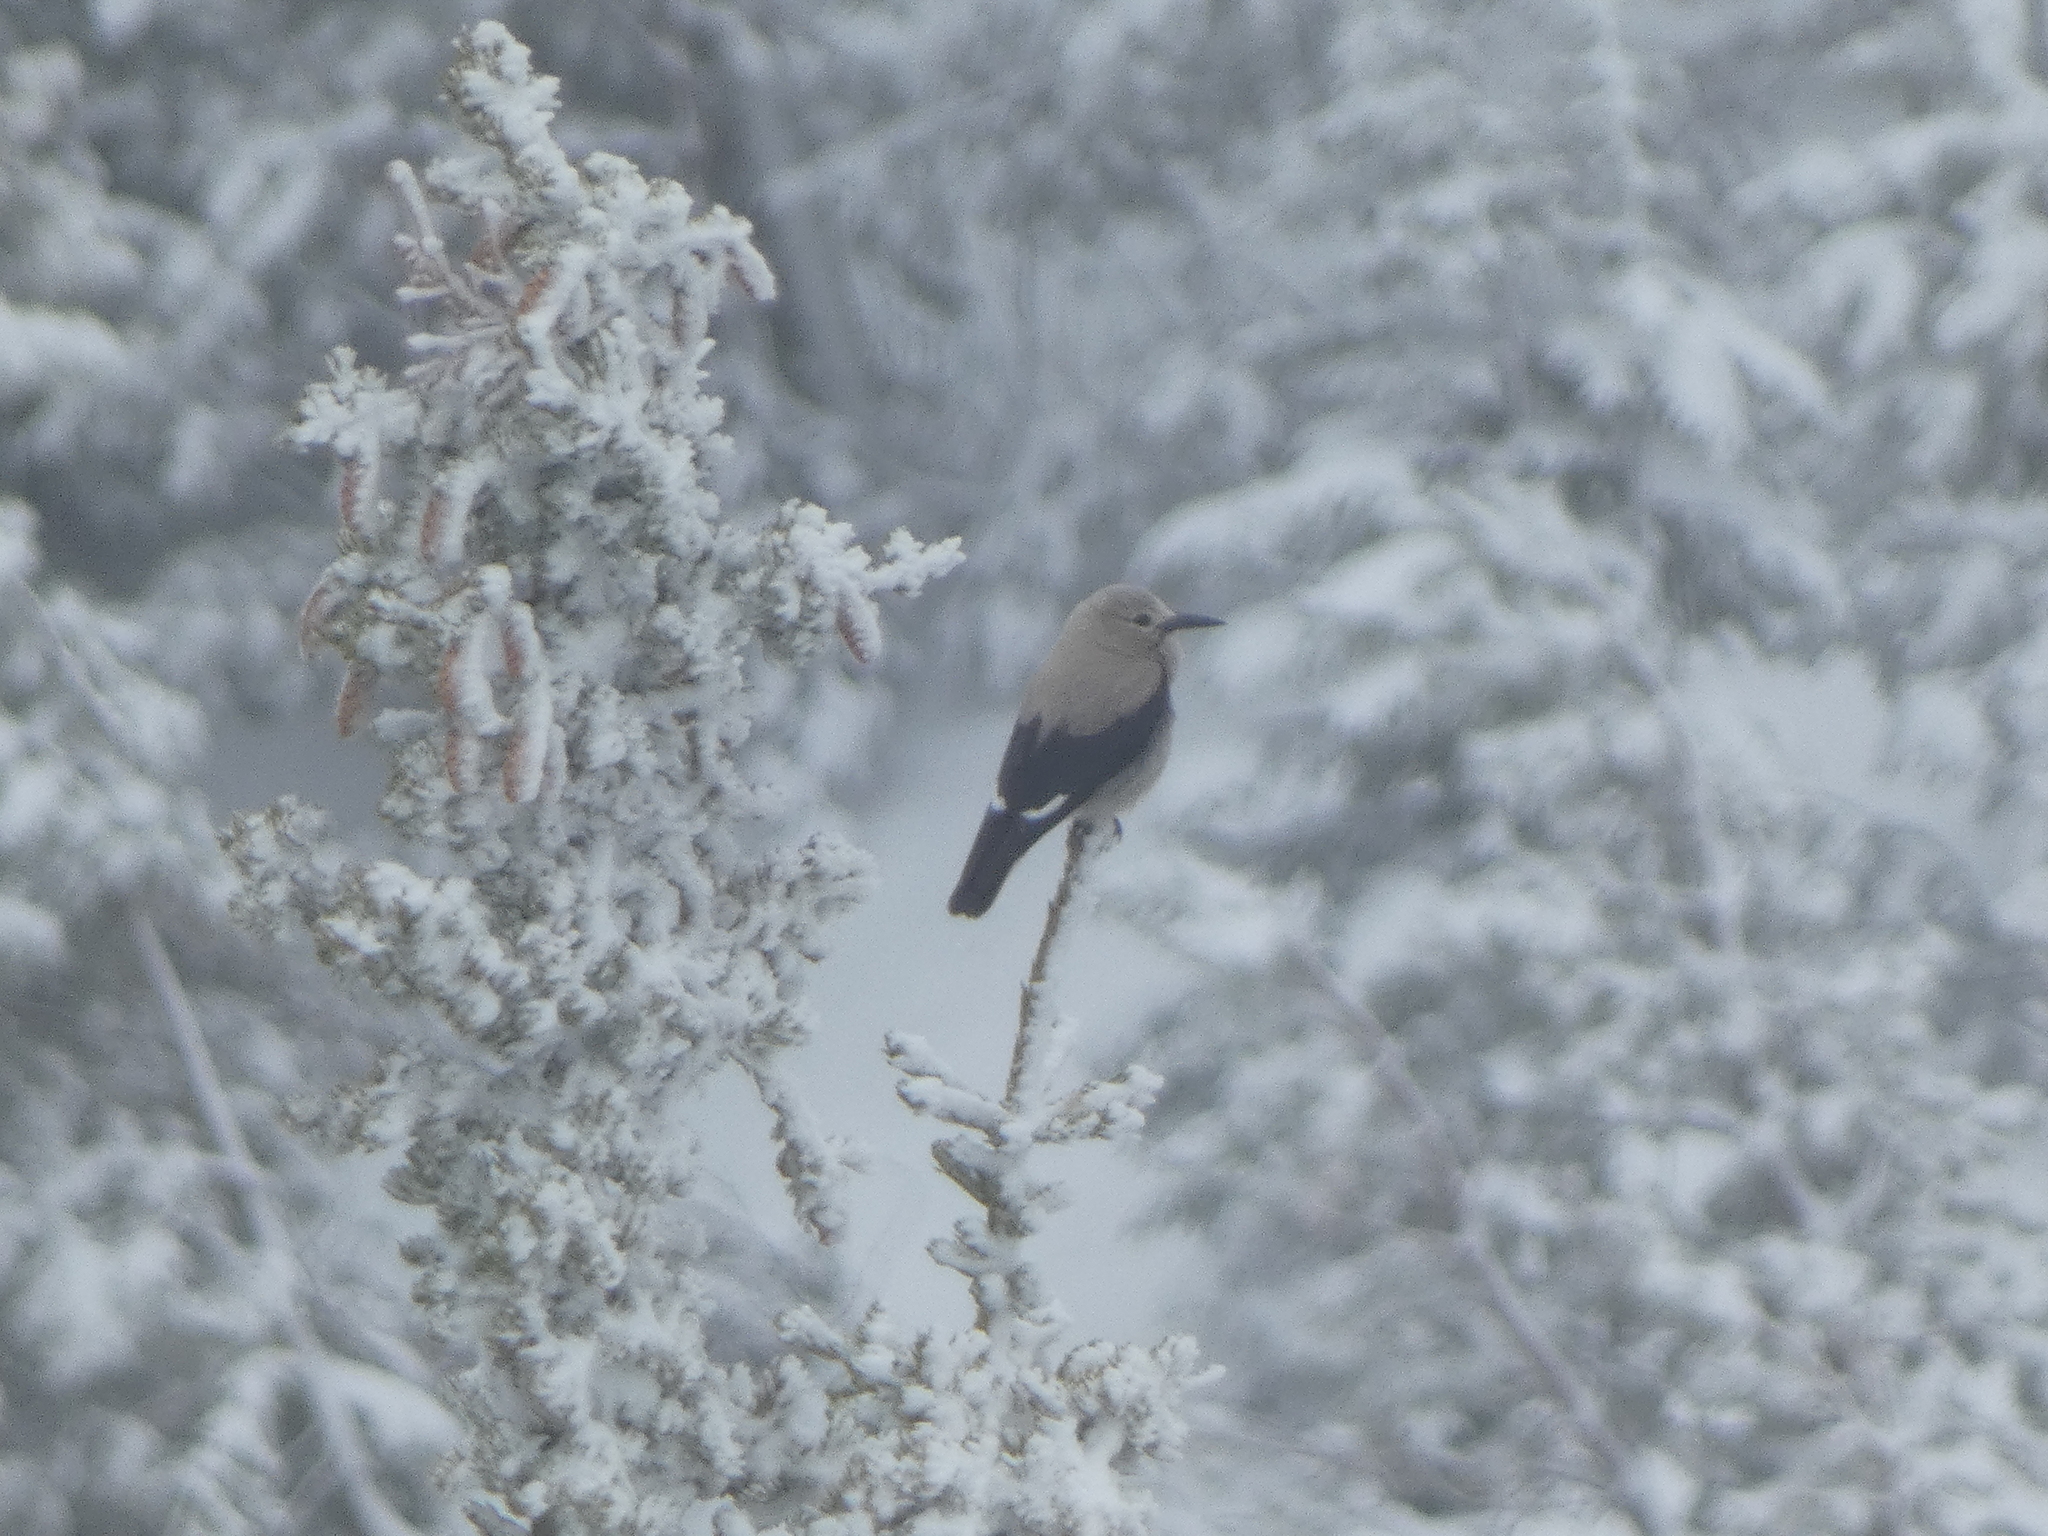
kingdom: Animalia
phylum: Chordata
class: Aves
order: Passeriformes
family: Corvidae
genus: Nucifraga
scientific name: Nucifraga columbiana
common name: Clark's nutcracker
